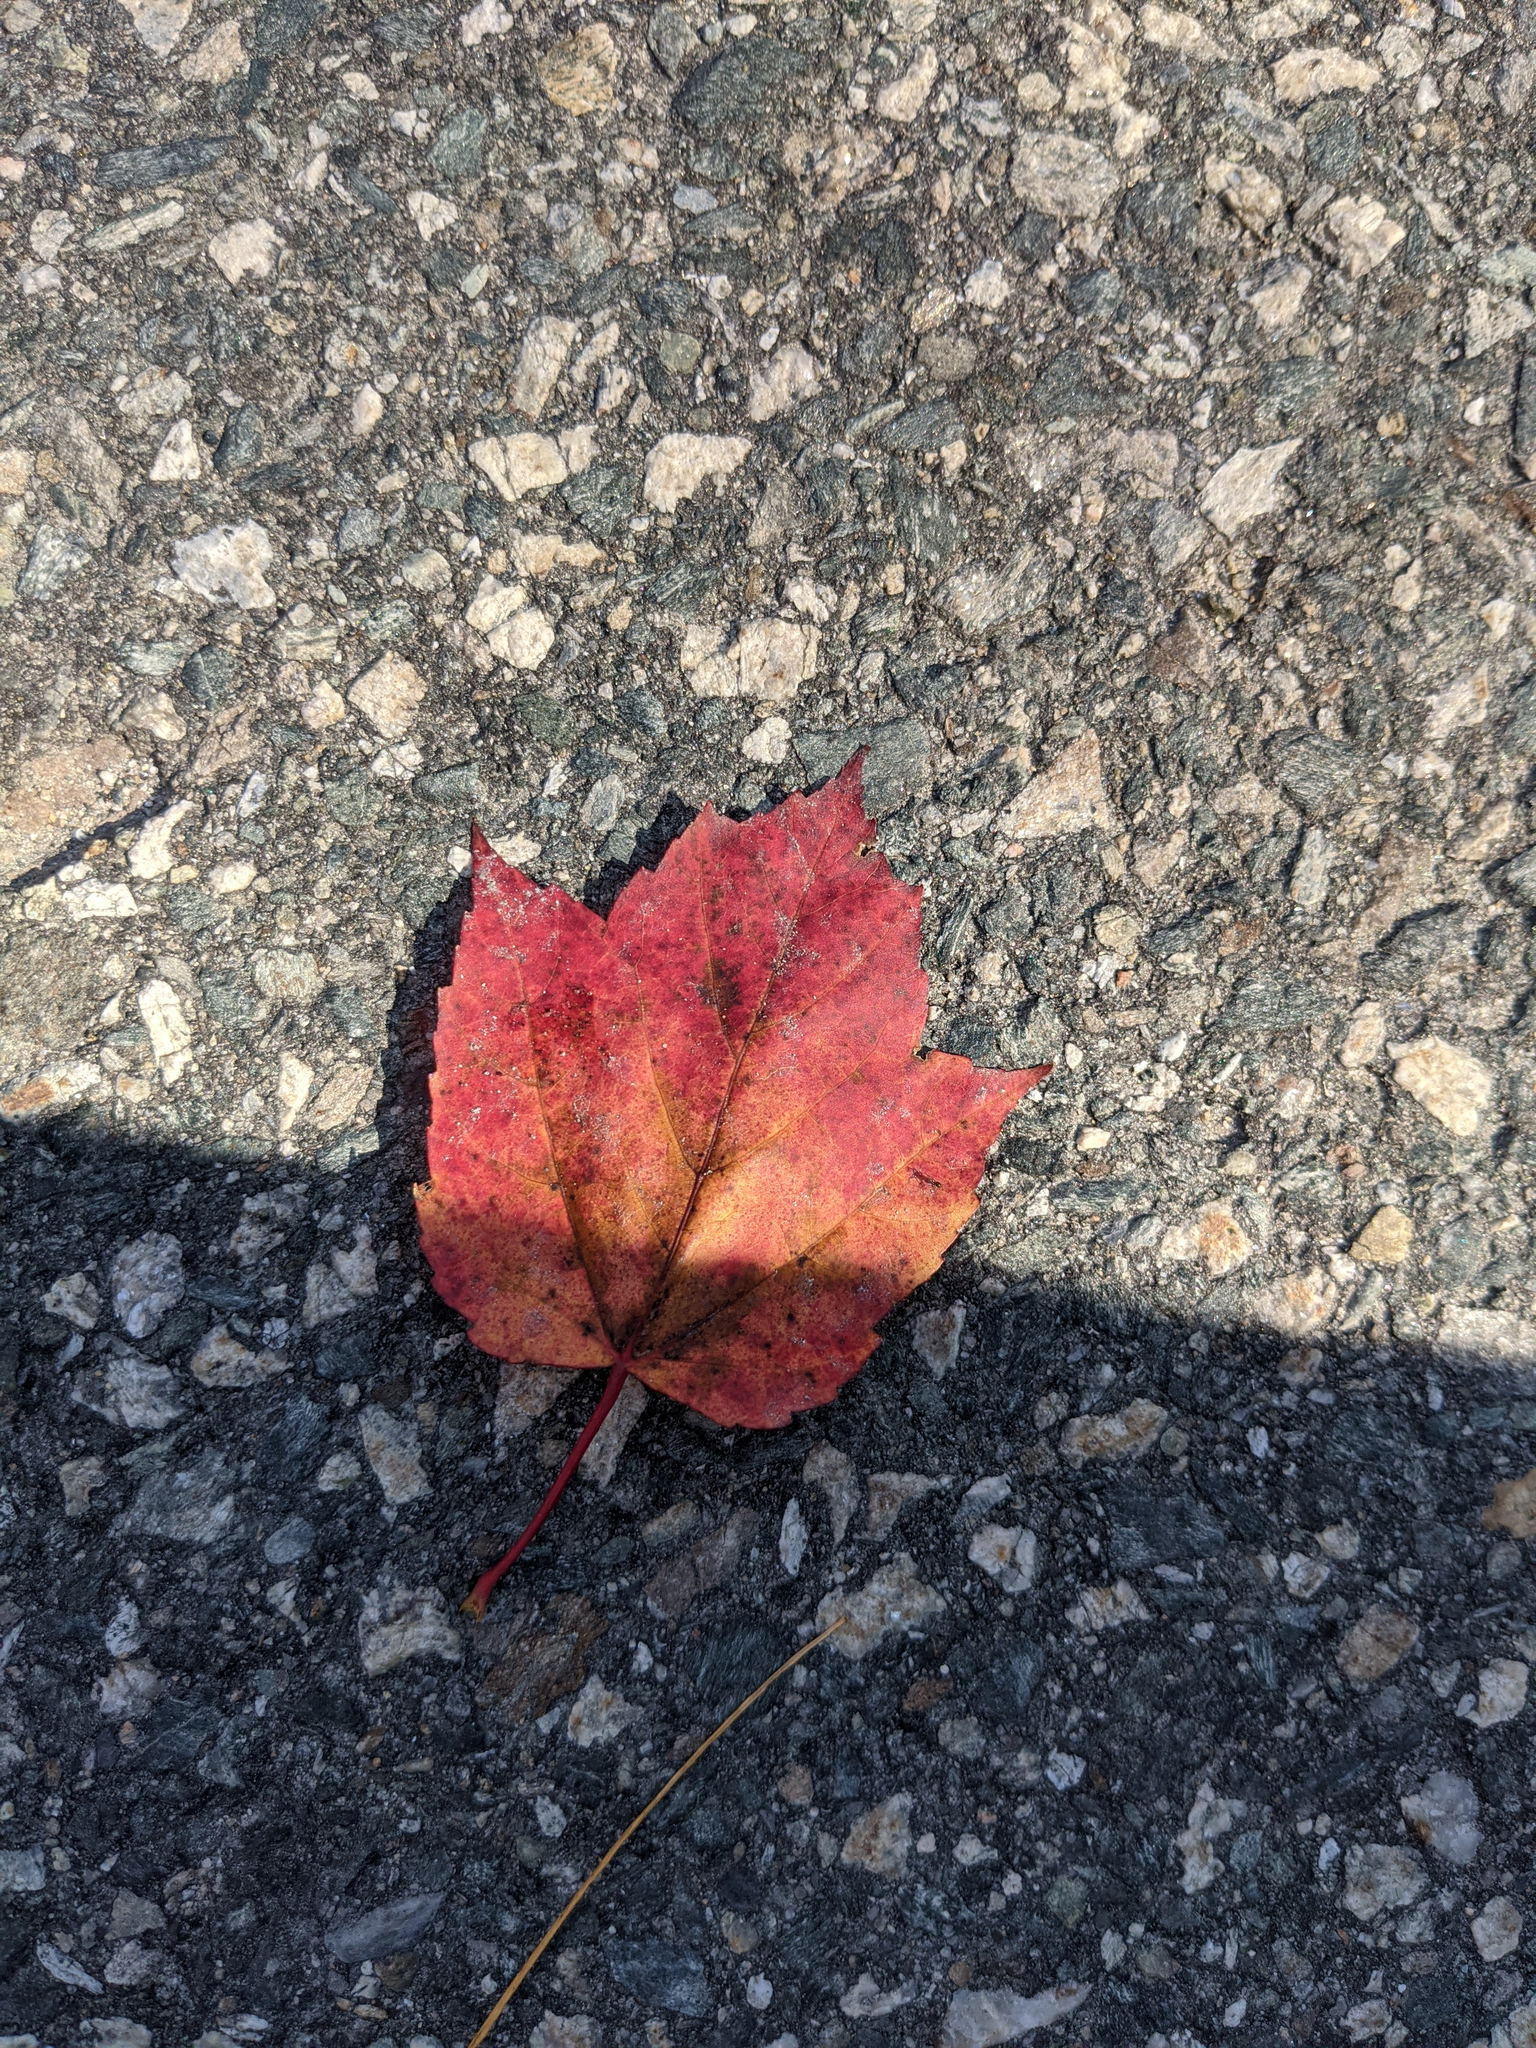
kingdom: Plantae
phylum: Tracheophyta
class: Magnoliopsida
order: Sapindales
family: Sapindaceae
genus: Acer
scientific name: Acer rubrum
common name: Red maple
